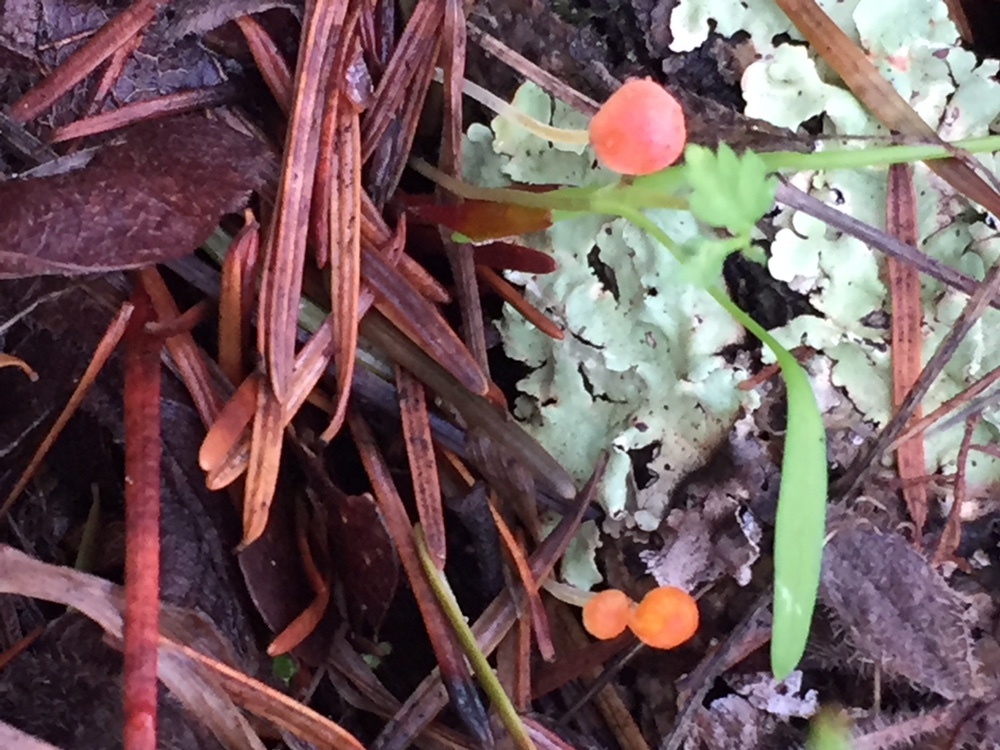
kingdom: Fungi
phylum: Basidiomycota
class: Agaricomycetes
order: Agaricales
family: Mycenaceae
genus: Mycena
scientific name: Mycena acicula
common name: Orange bonnet
